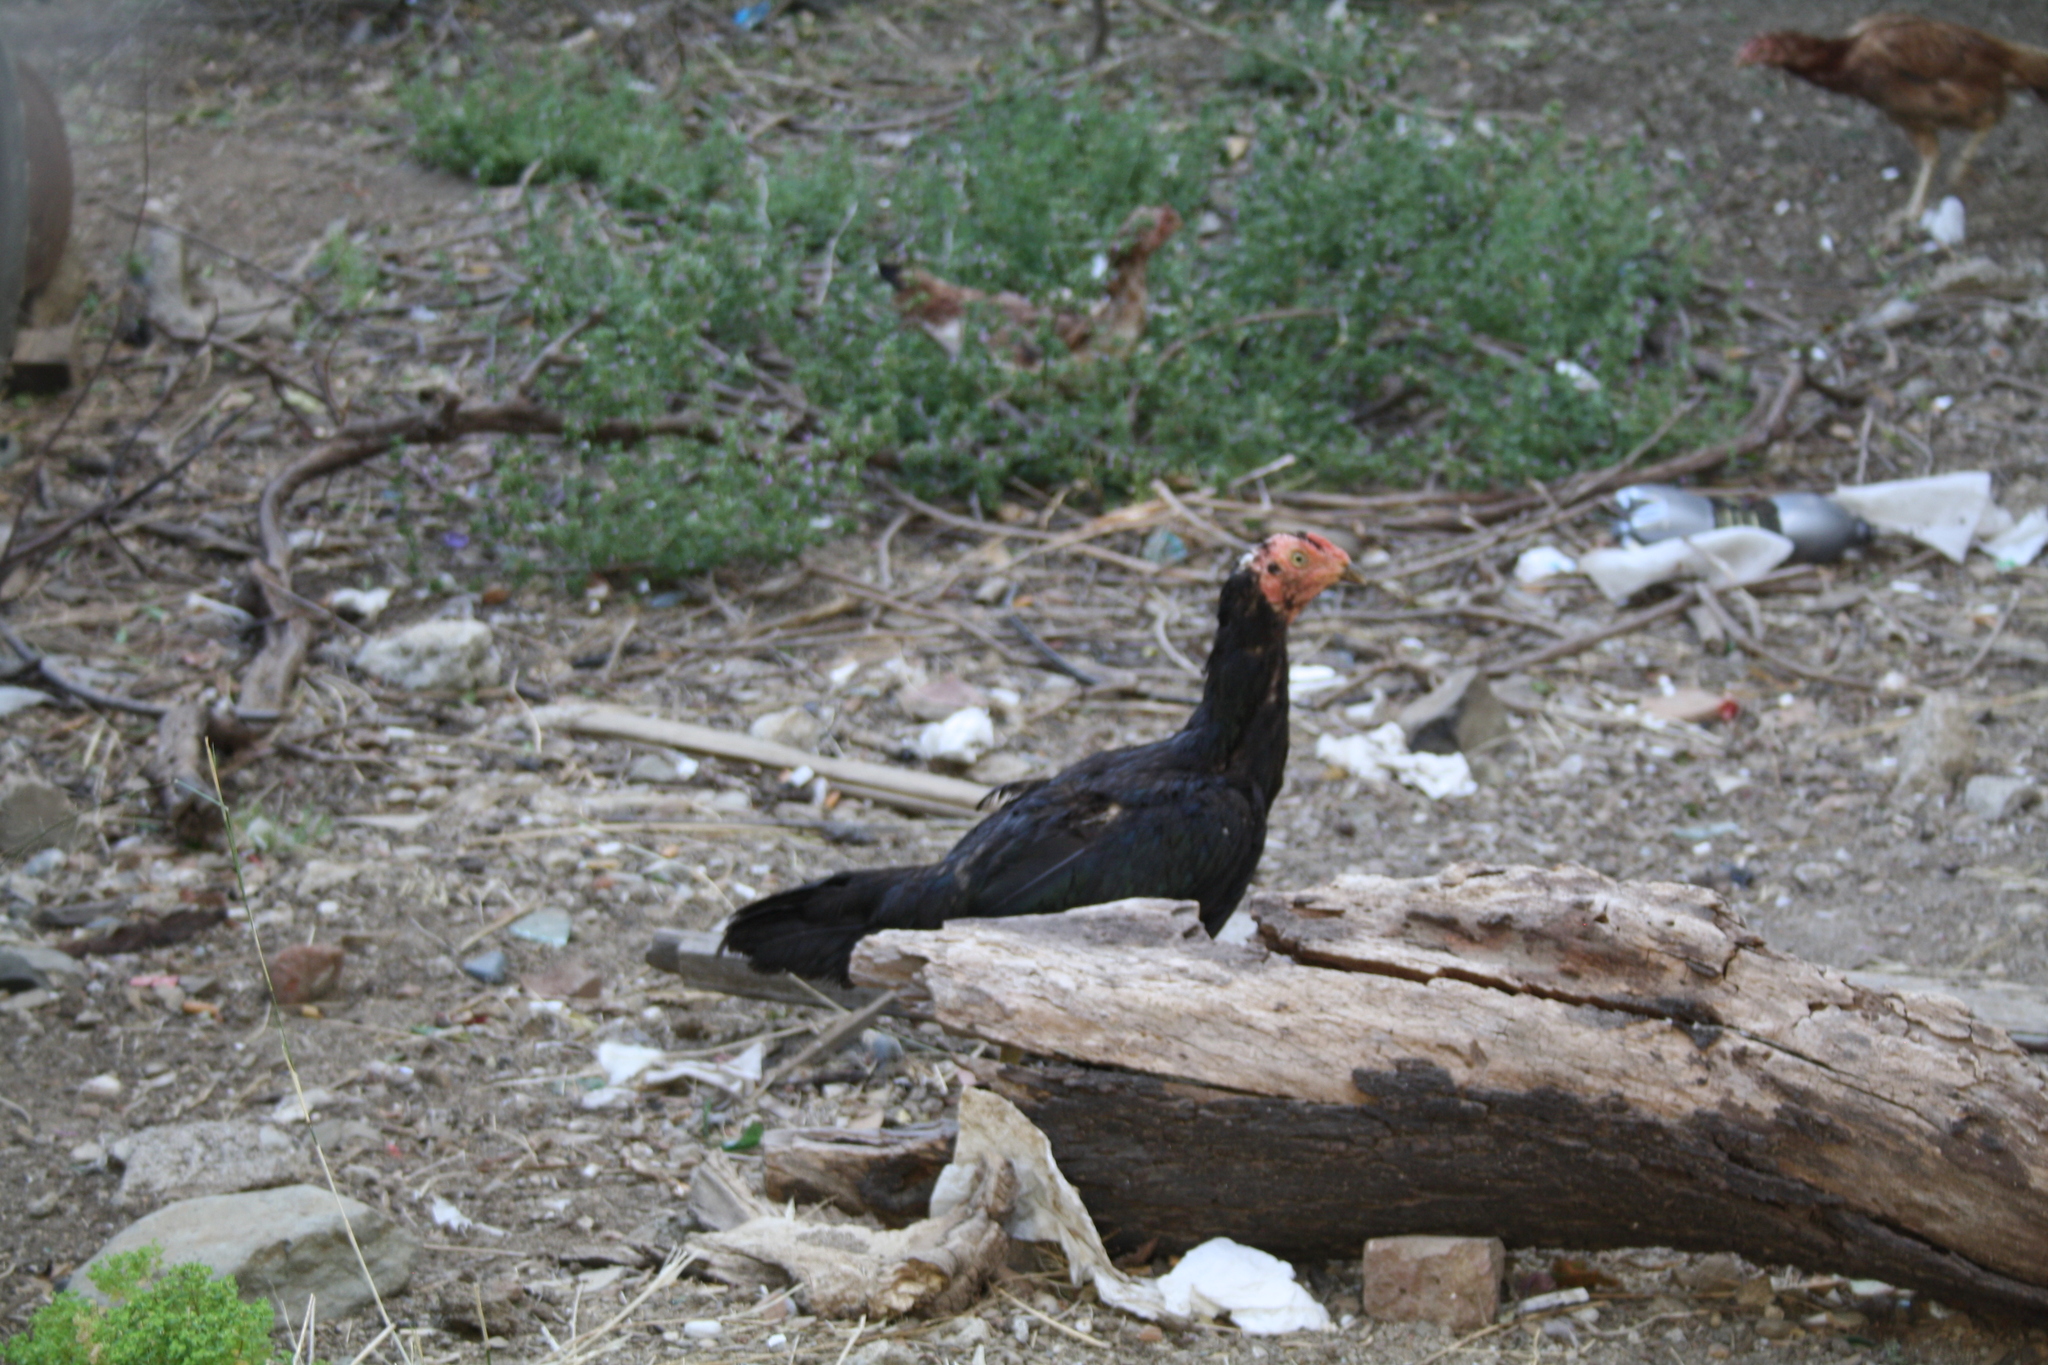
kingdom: Animalia
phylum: Chordata
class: Aves
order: Galliformes
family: Phasianidae
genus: Gallus
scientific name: Gallus gallus
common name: Red junglefowl
